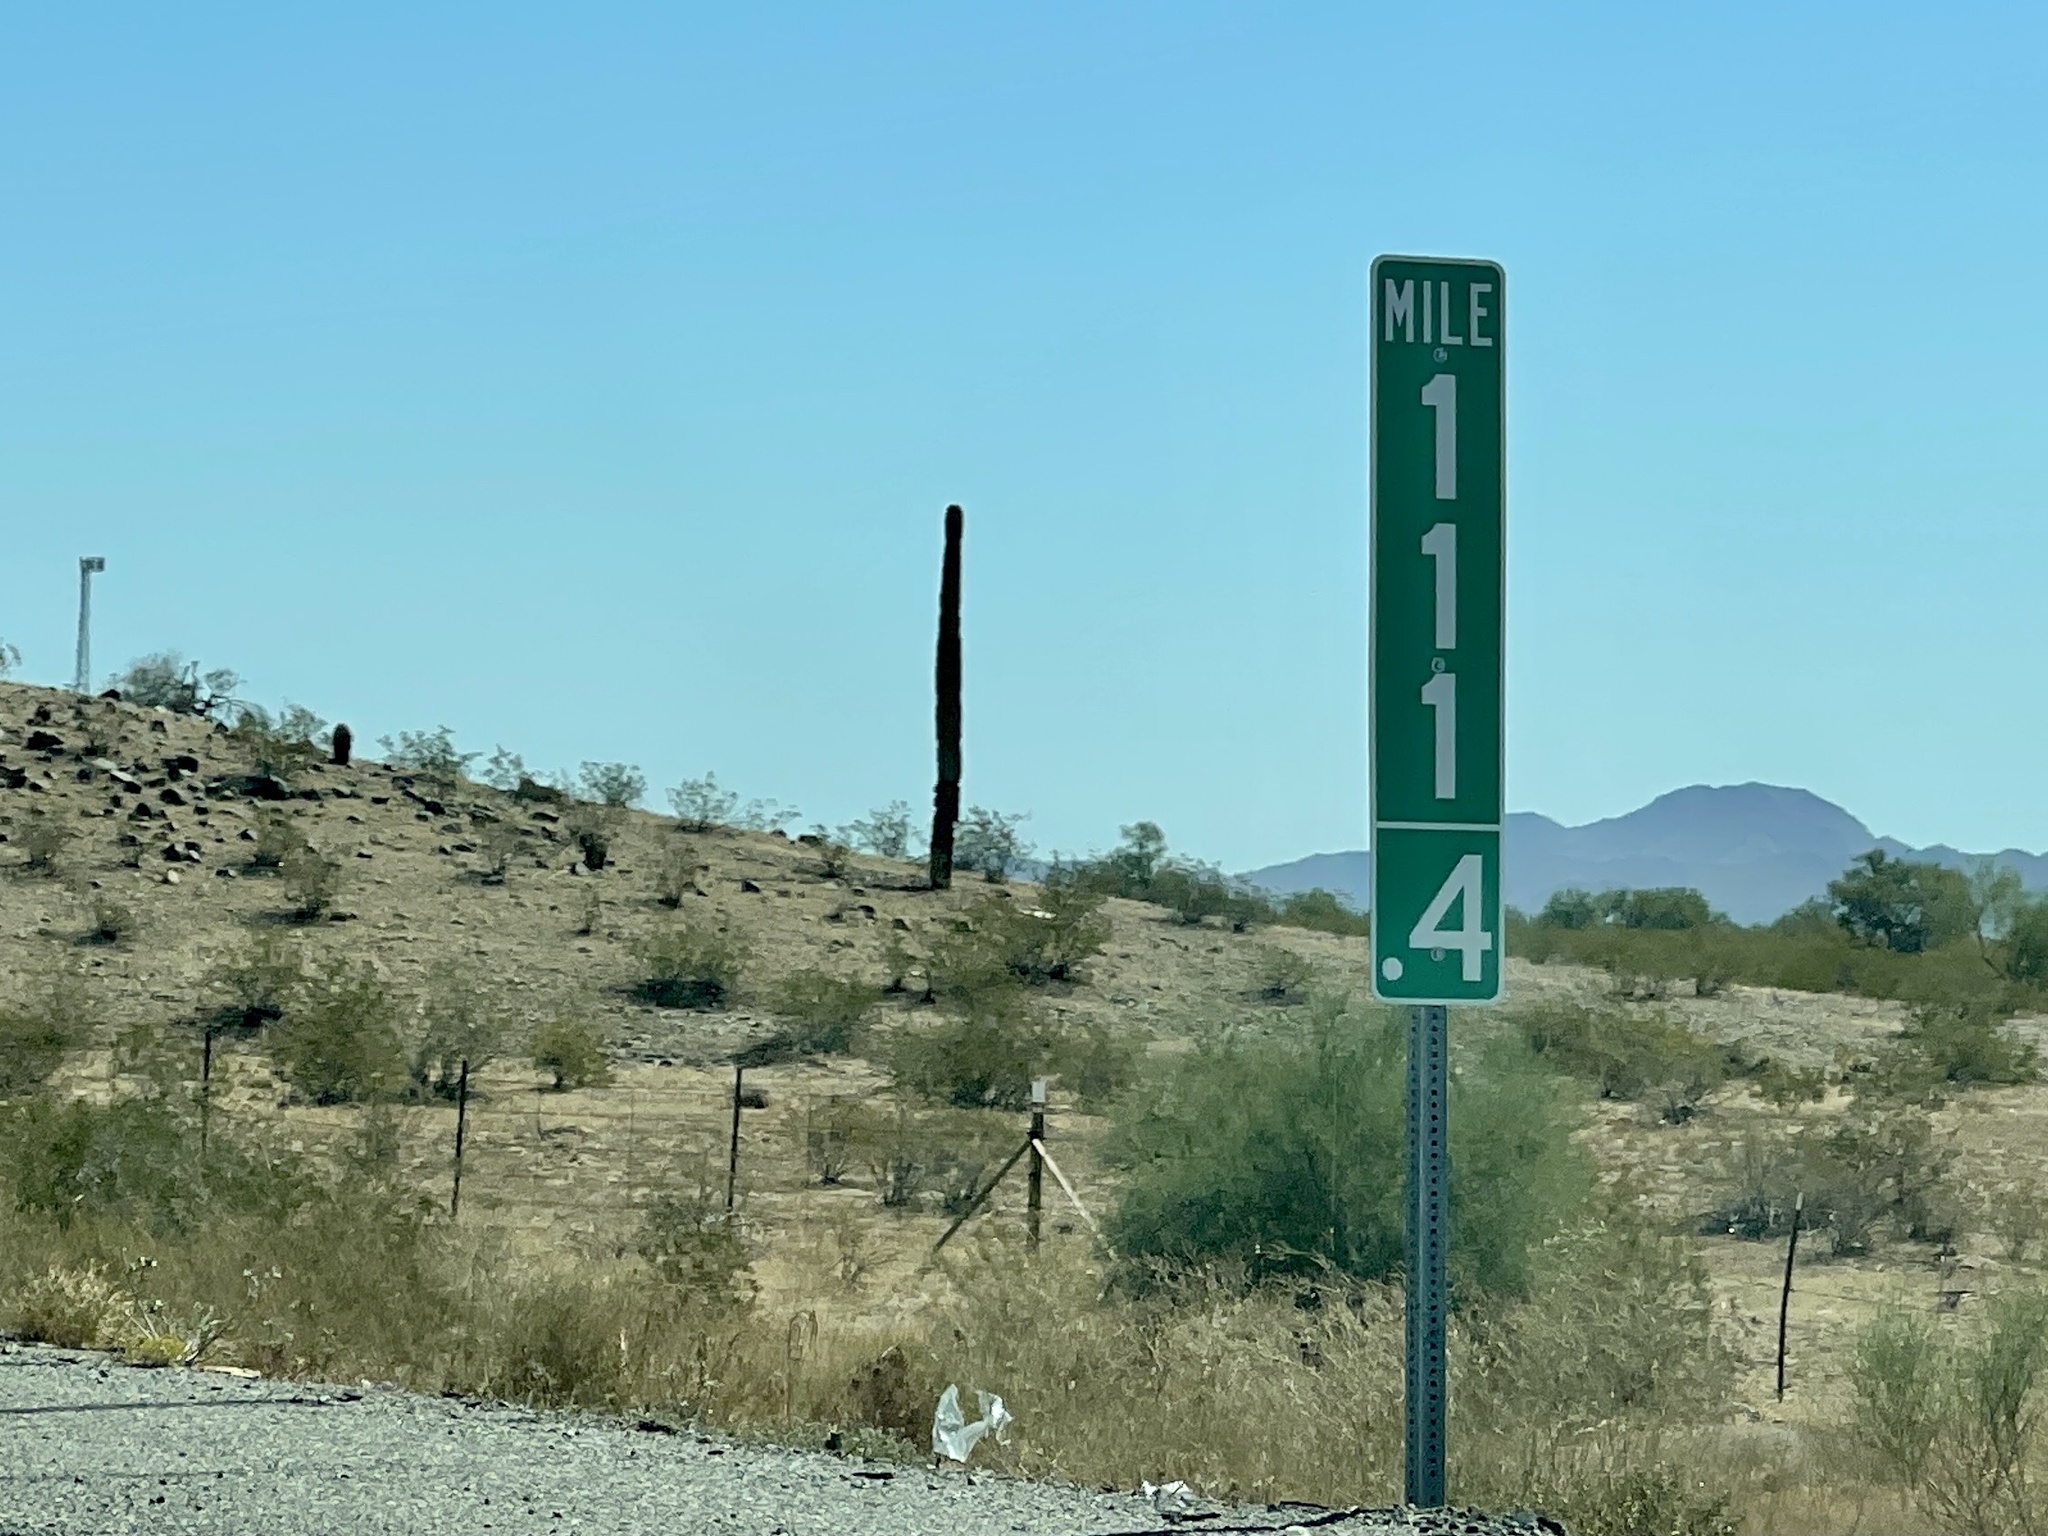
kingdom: Plantae
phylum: Tracheophyta
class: Magnoliopsida
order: Caryophyllales
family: Cactaceae
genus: Carnegiea
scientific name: Carnegiea gigantea
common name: Saguaro
